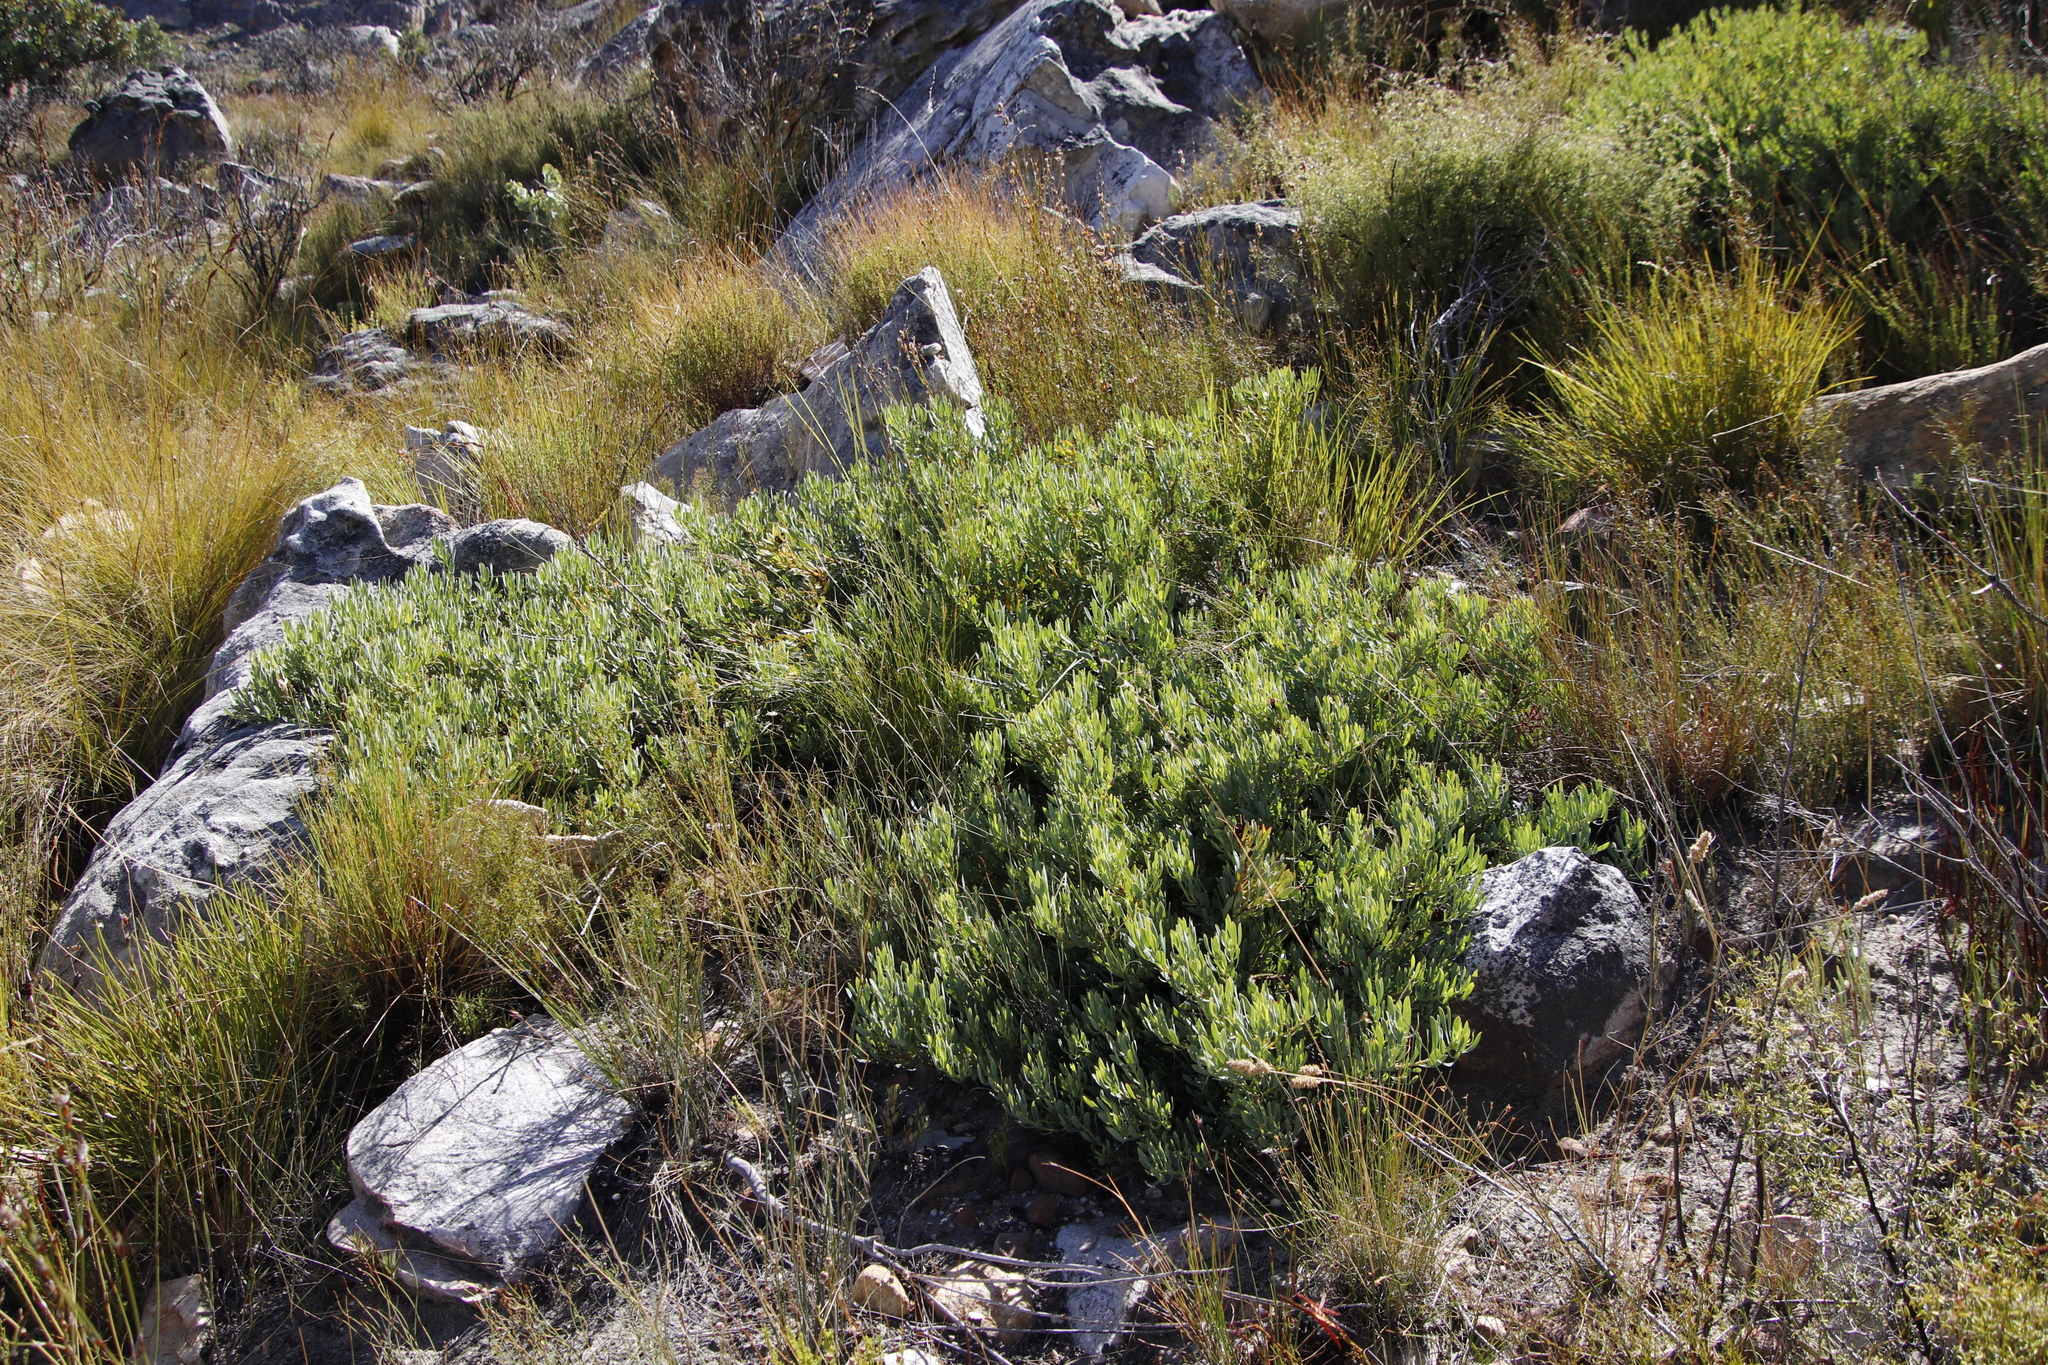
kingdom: Plantae
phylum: Tracheophyta
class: Magnoliopsida
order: Proteales
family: Proteaceae
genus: Leucadendron
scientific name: Leucadendron glaberrimum
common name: Common oily conebush
